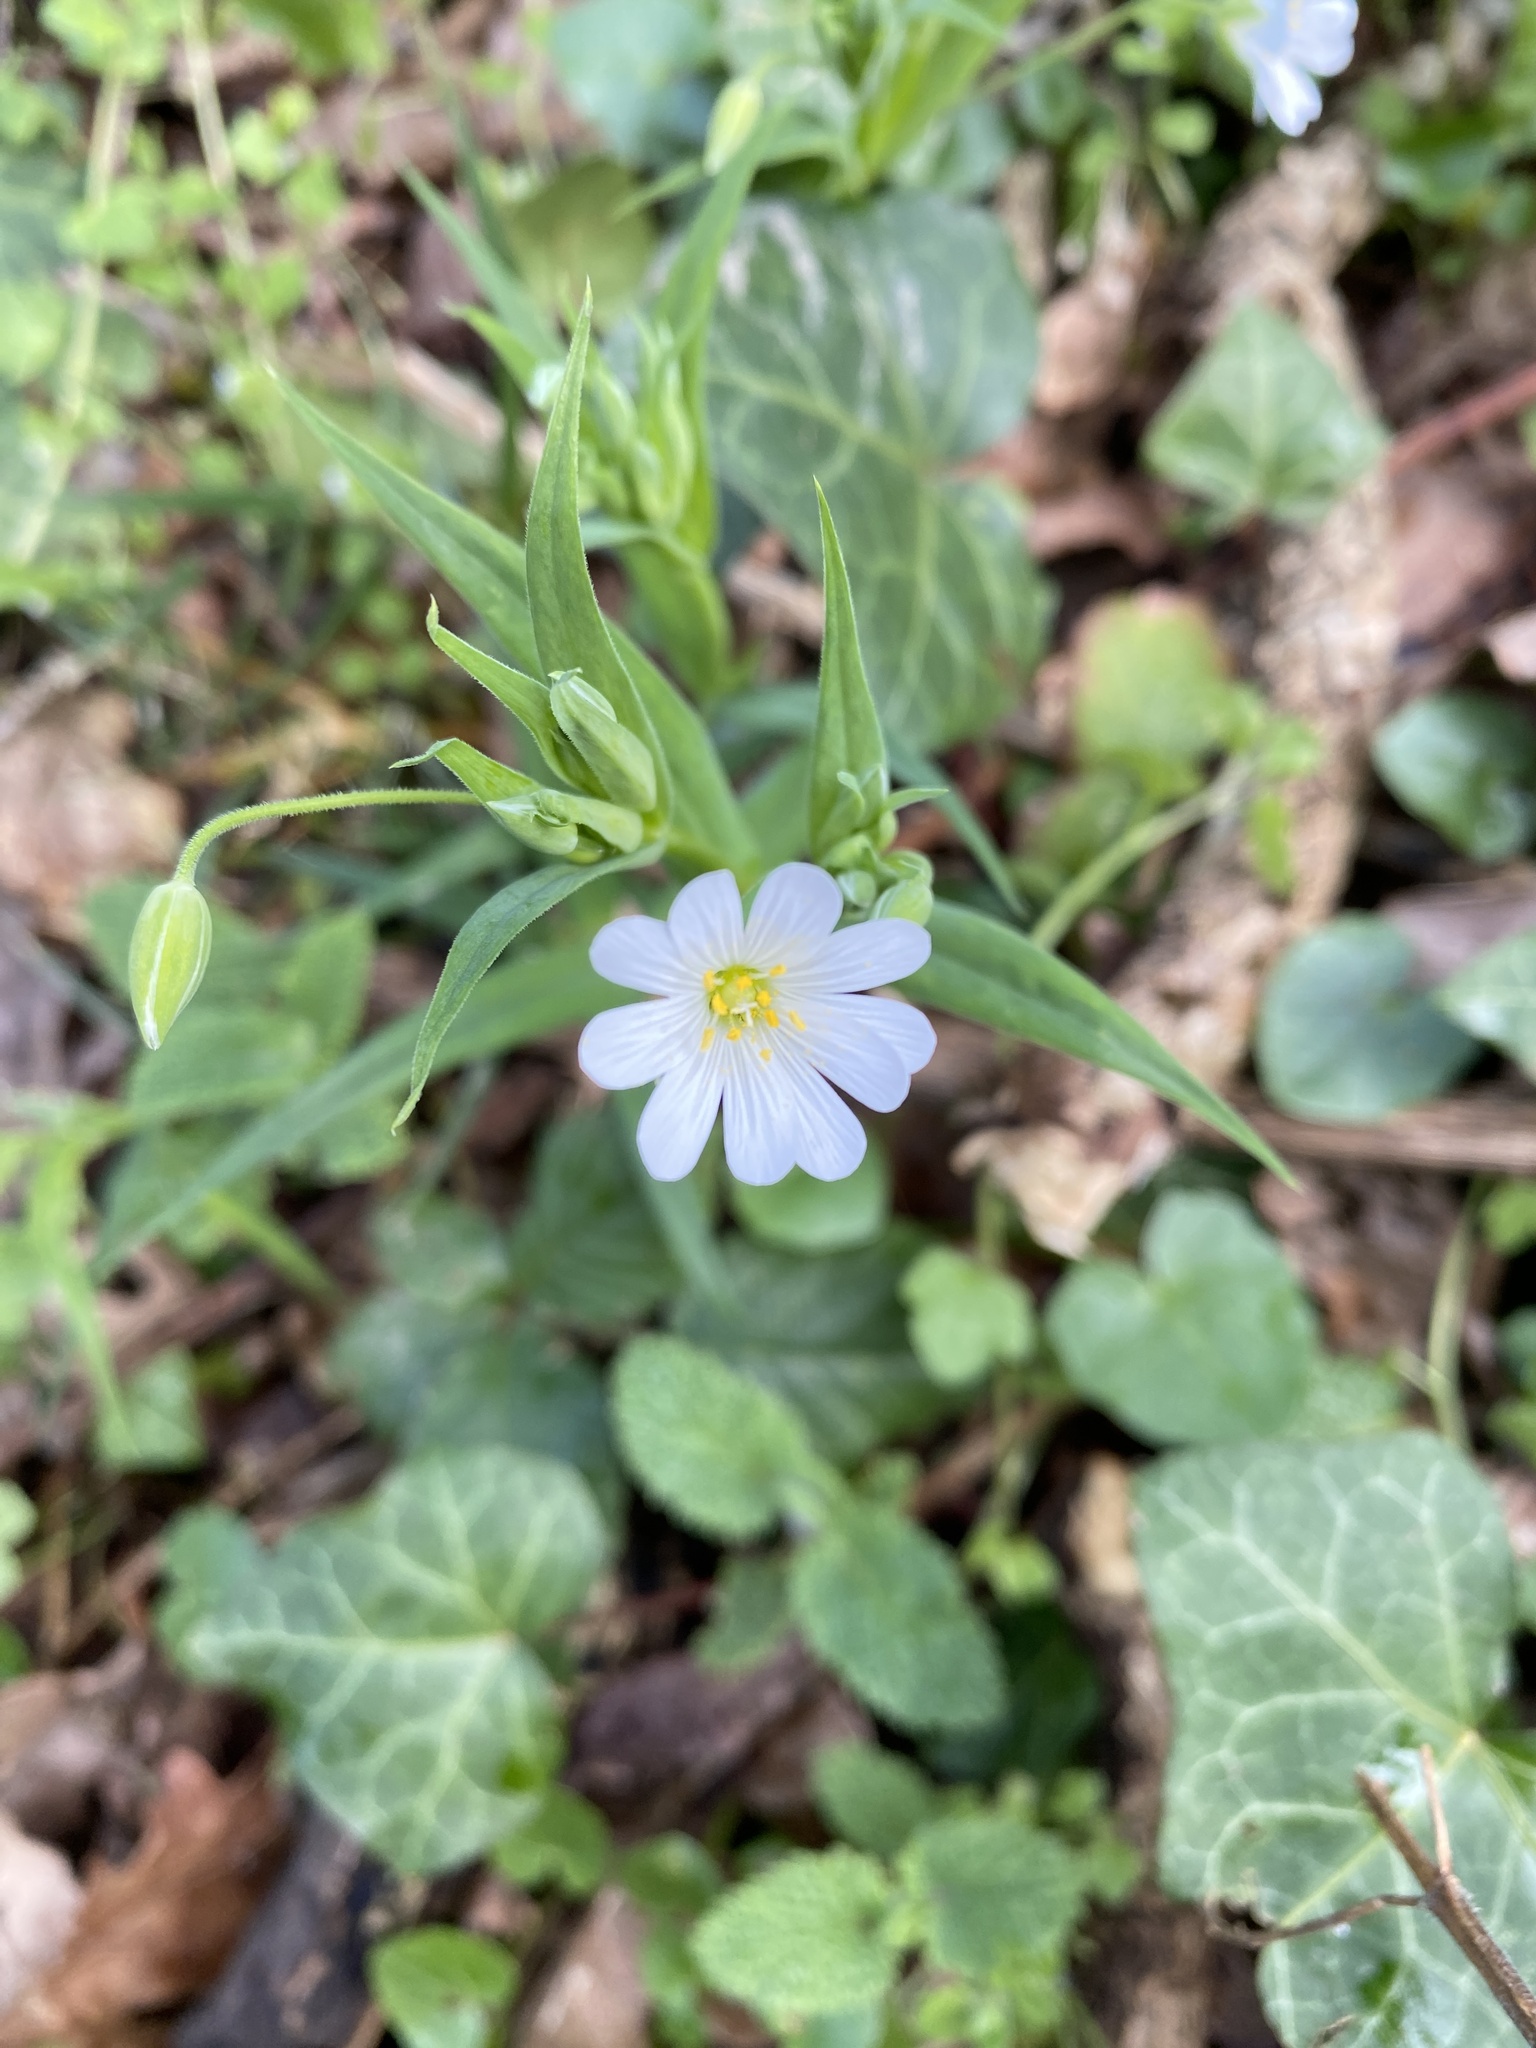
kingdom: Plantae
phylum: Tracheophyta
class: Magnoliopsida
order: Caryophyllales
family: Caryophyllaceae
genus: Rabelera
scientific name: Rabelera holostea
